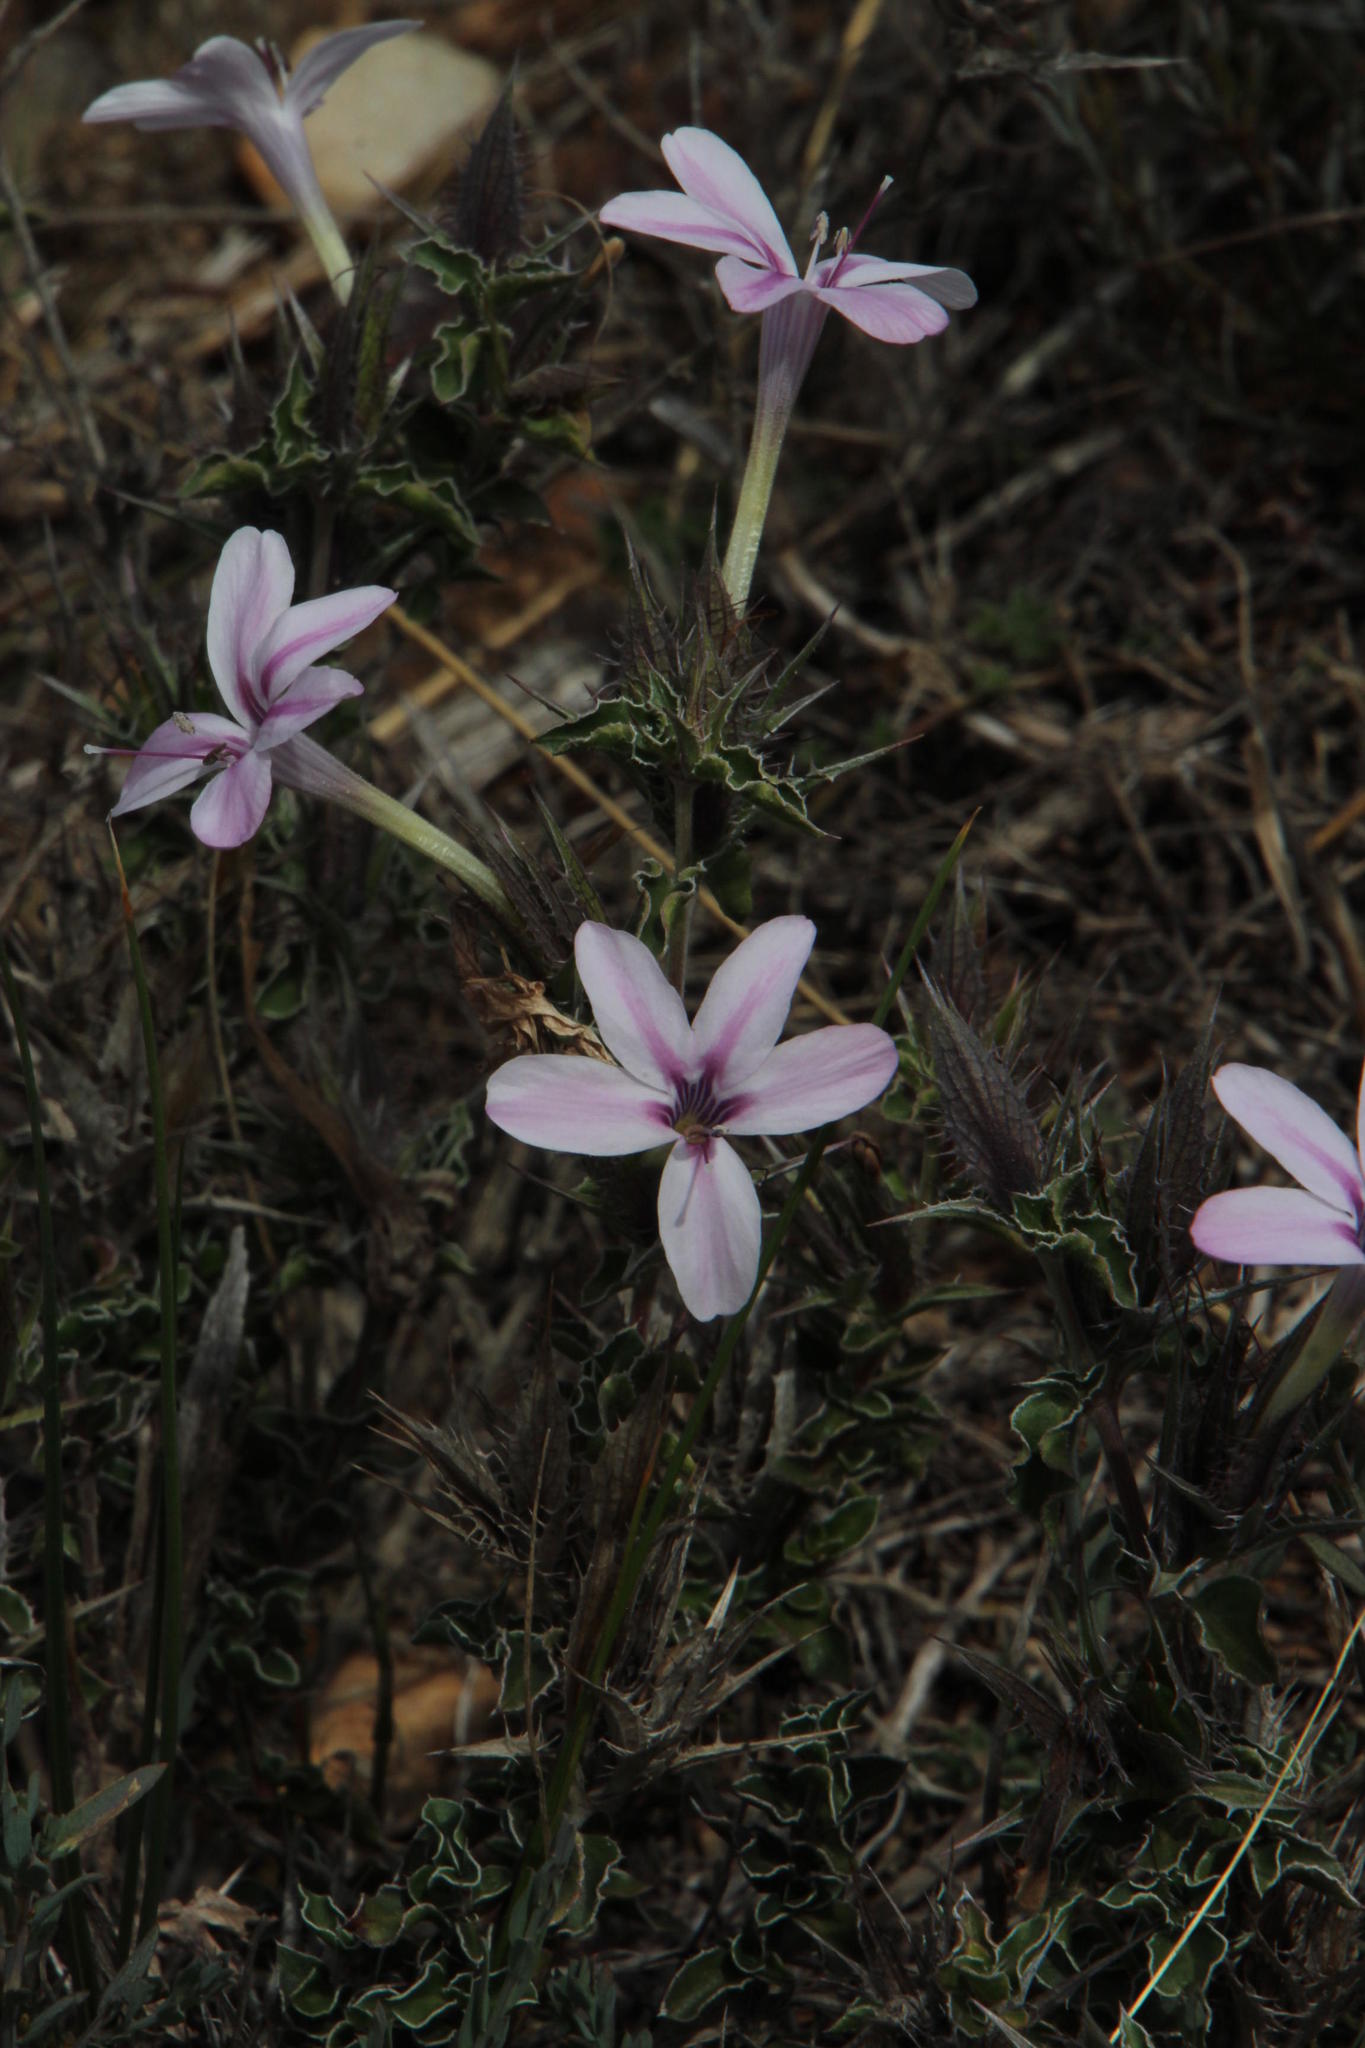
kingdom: Plantae
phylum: Tracheophyta
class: Magnoliopsida
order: Lamiales
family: Acanthaceae
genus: Barleria
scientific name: Barleria pungens
